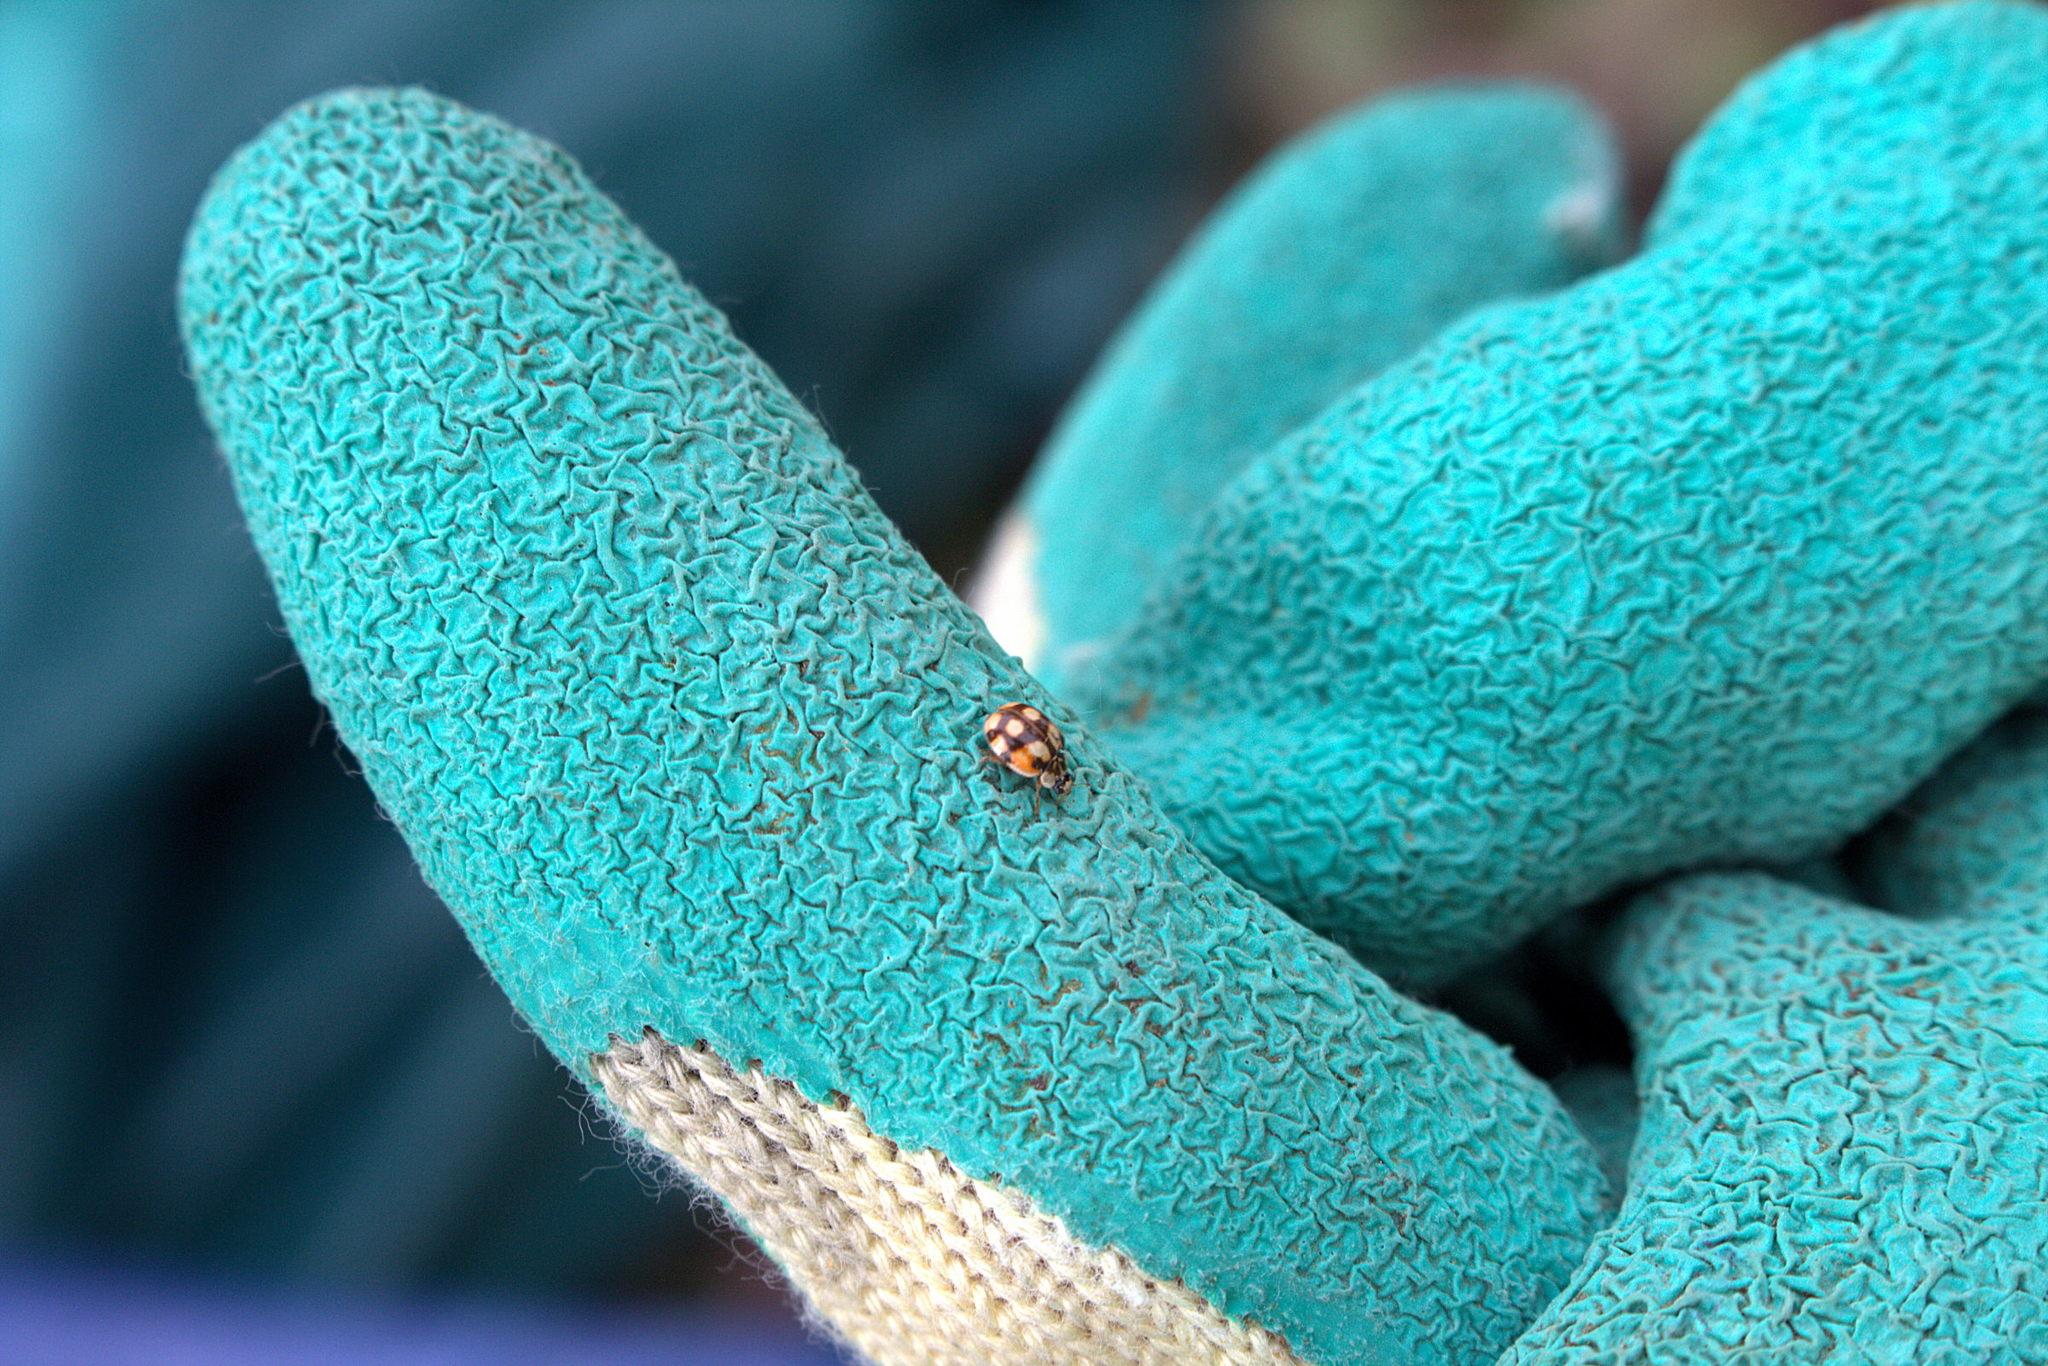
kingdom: Animalia
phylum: Arthropoda
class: Insecta
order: Coleoptera
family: Coccinellidae
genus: Adalia
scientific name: Adalia decempunctata
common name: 10-spot ladybird
